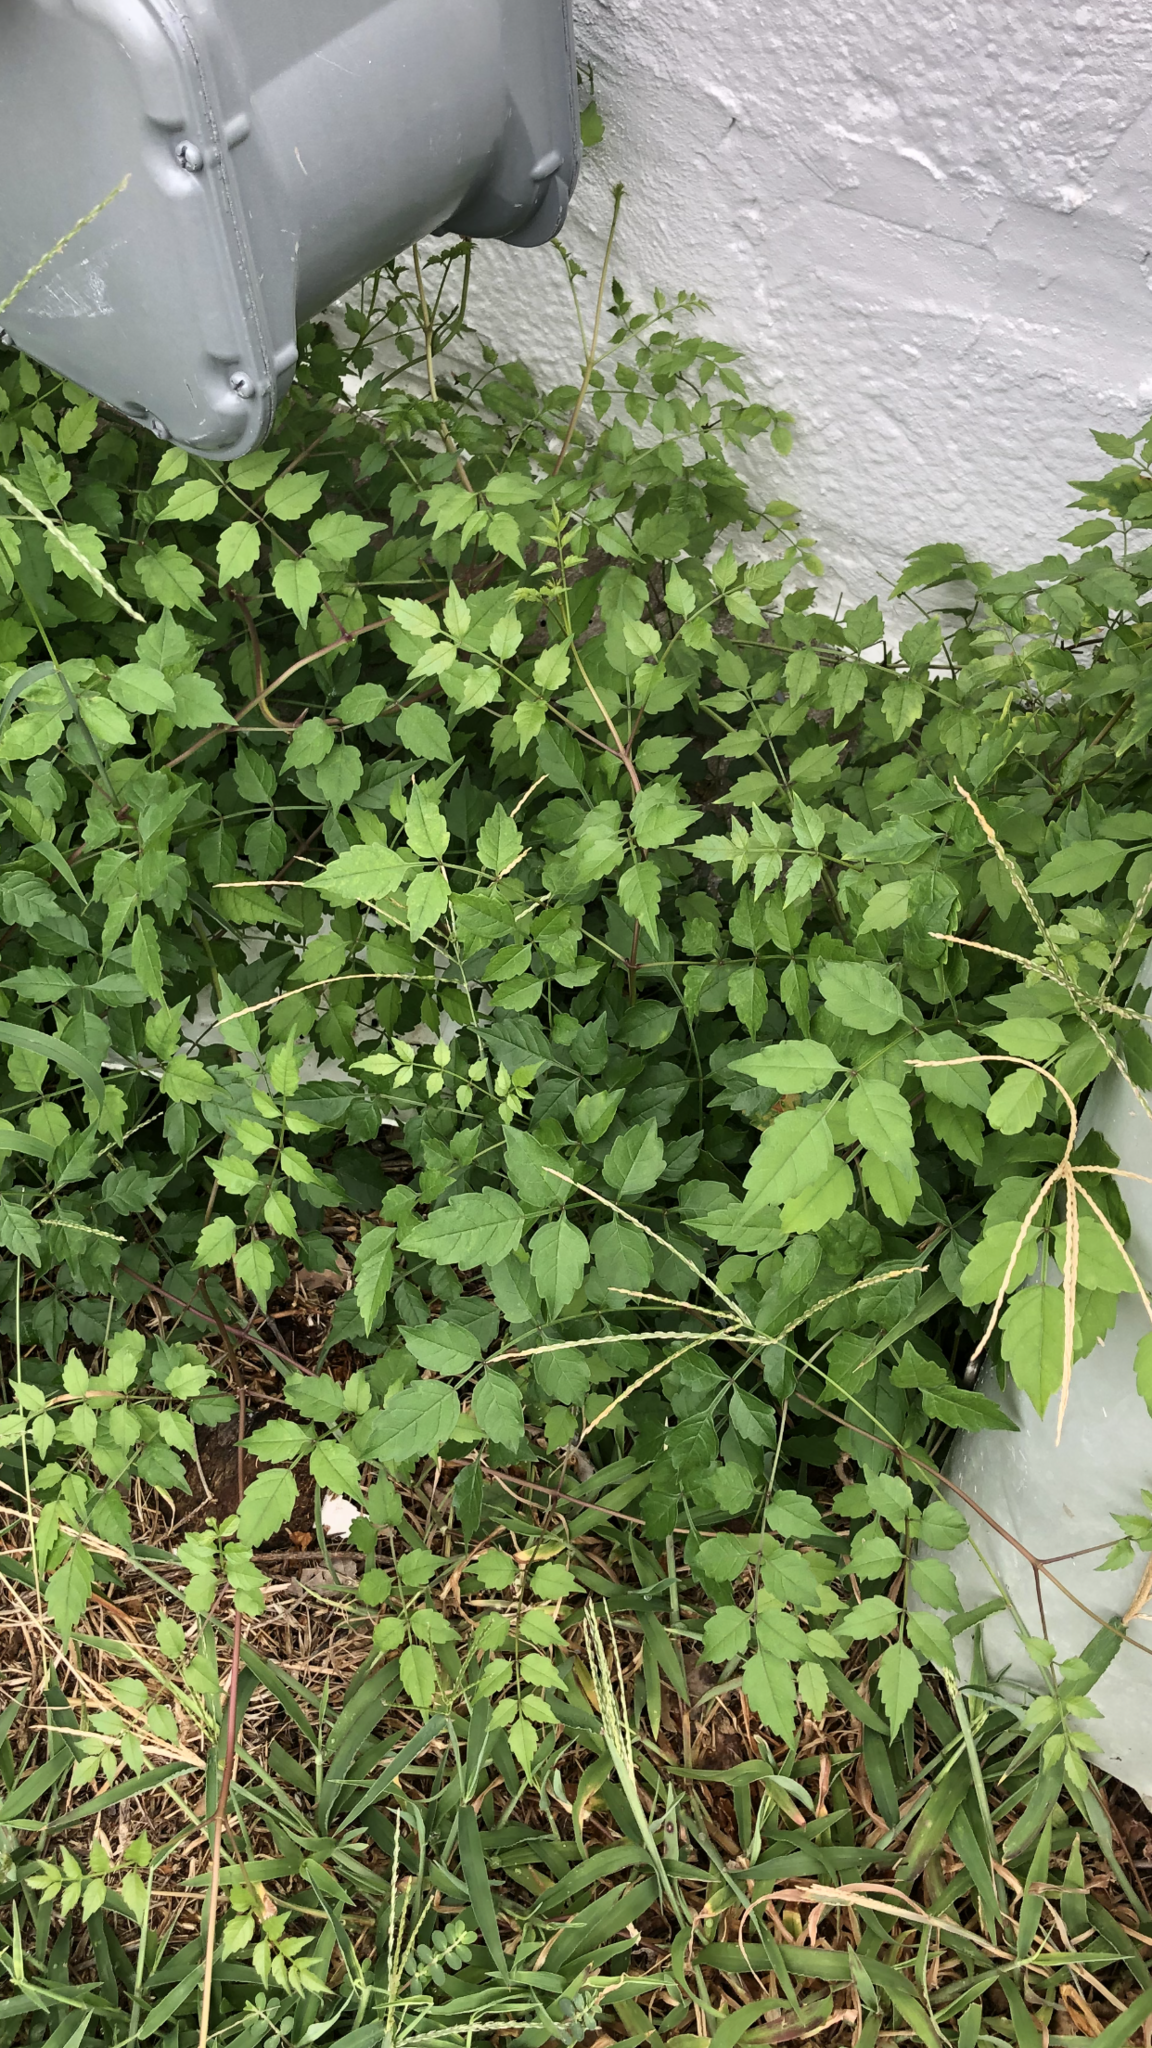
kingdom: Plantae
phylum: Tracheophyta
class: Magnoliopsida
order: Lamiales
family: Bignoniaceae
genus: Campsis
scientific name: Campsis radicans
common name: Trumpet-creeper
